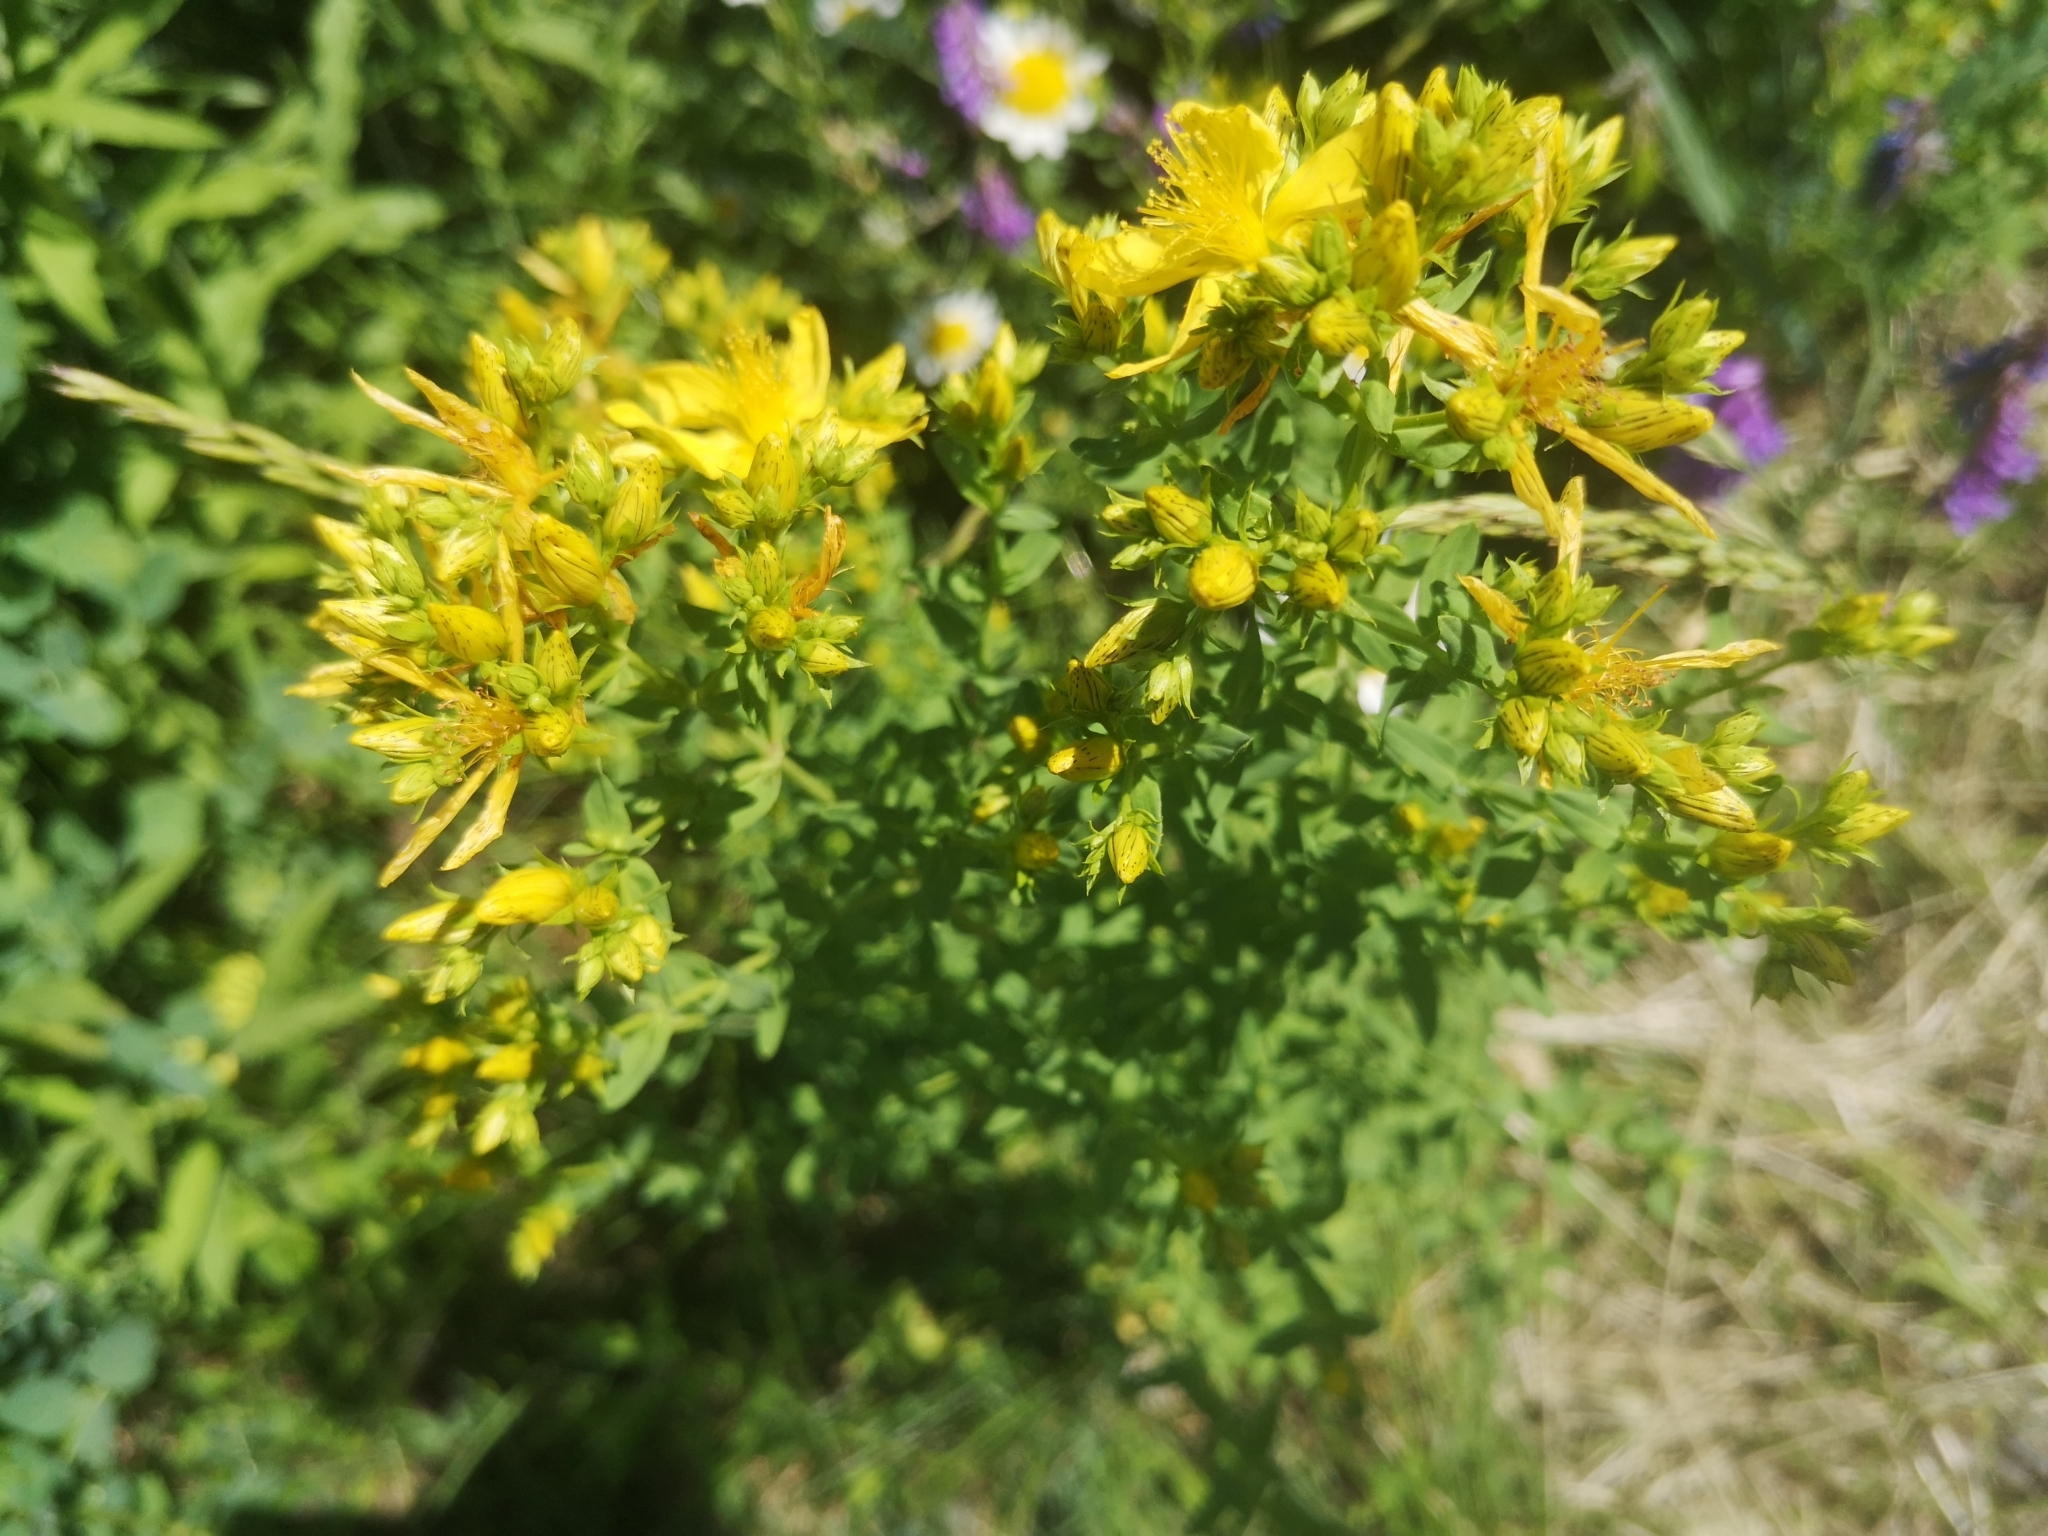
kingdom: Plantae
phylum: Tracheophyta
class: Magnoliopsida
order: Malpighiales
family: Hypericaceae
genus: Hypericum
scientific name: Hypericum perforatum
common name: Common st. johnswort
